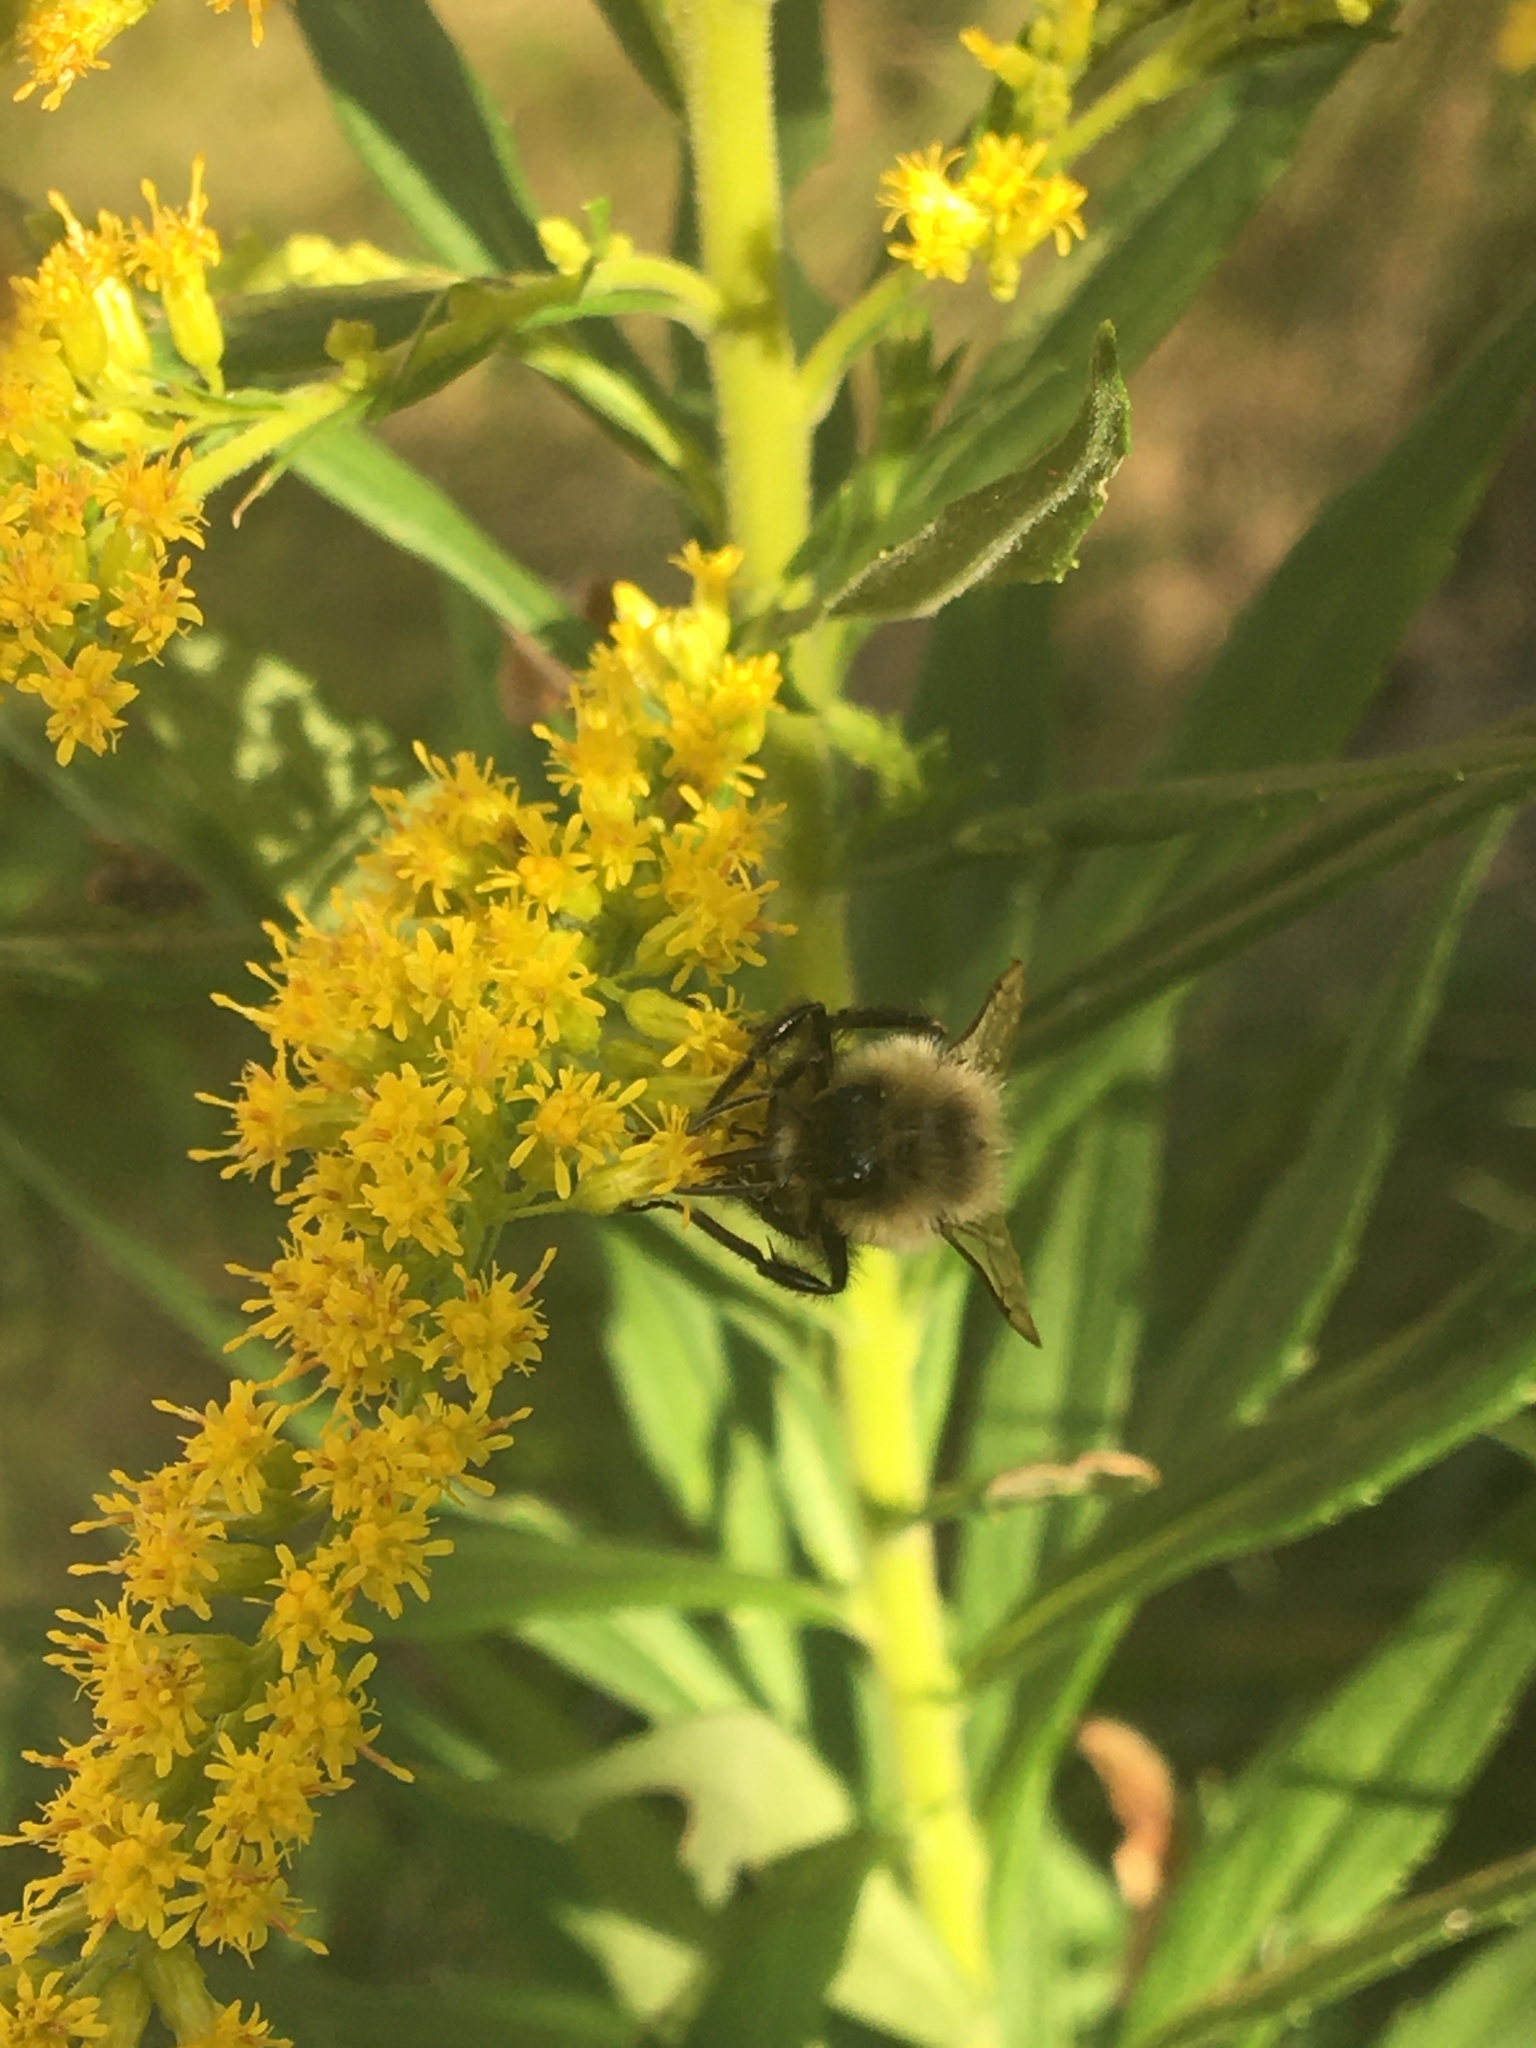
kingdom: Animalia
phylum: Arthropoda
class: Insecta
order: Hymenoptera
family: Apidae
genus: Bombus
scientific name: Bombus impatiens
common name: Common eastern bumble bee
